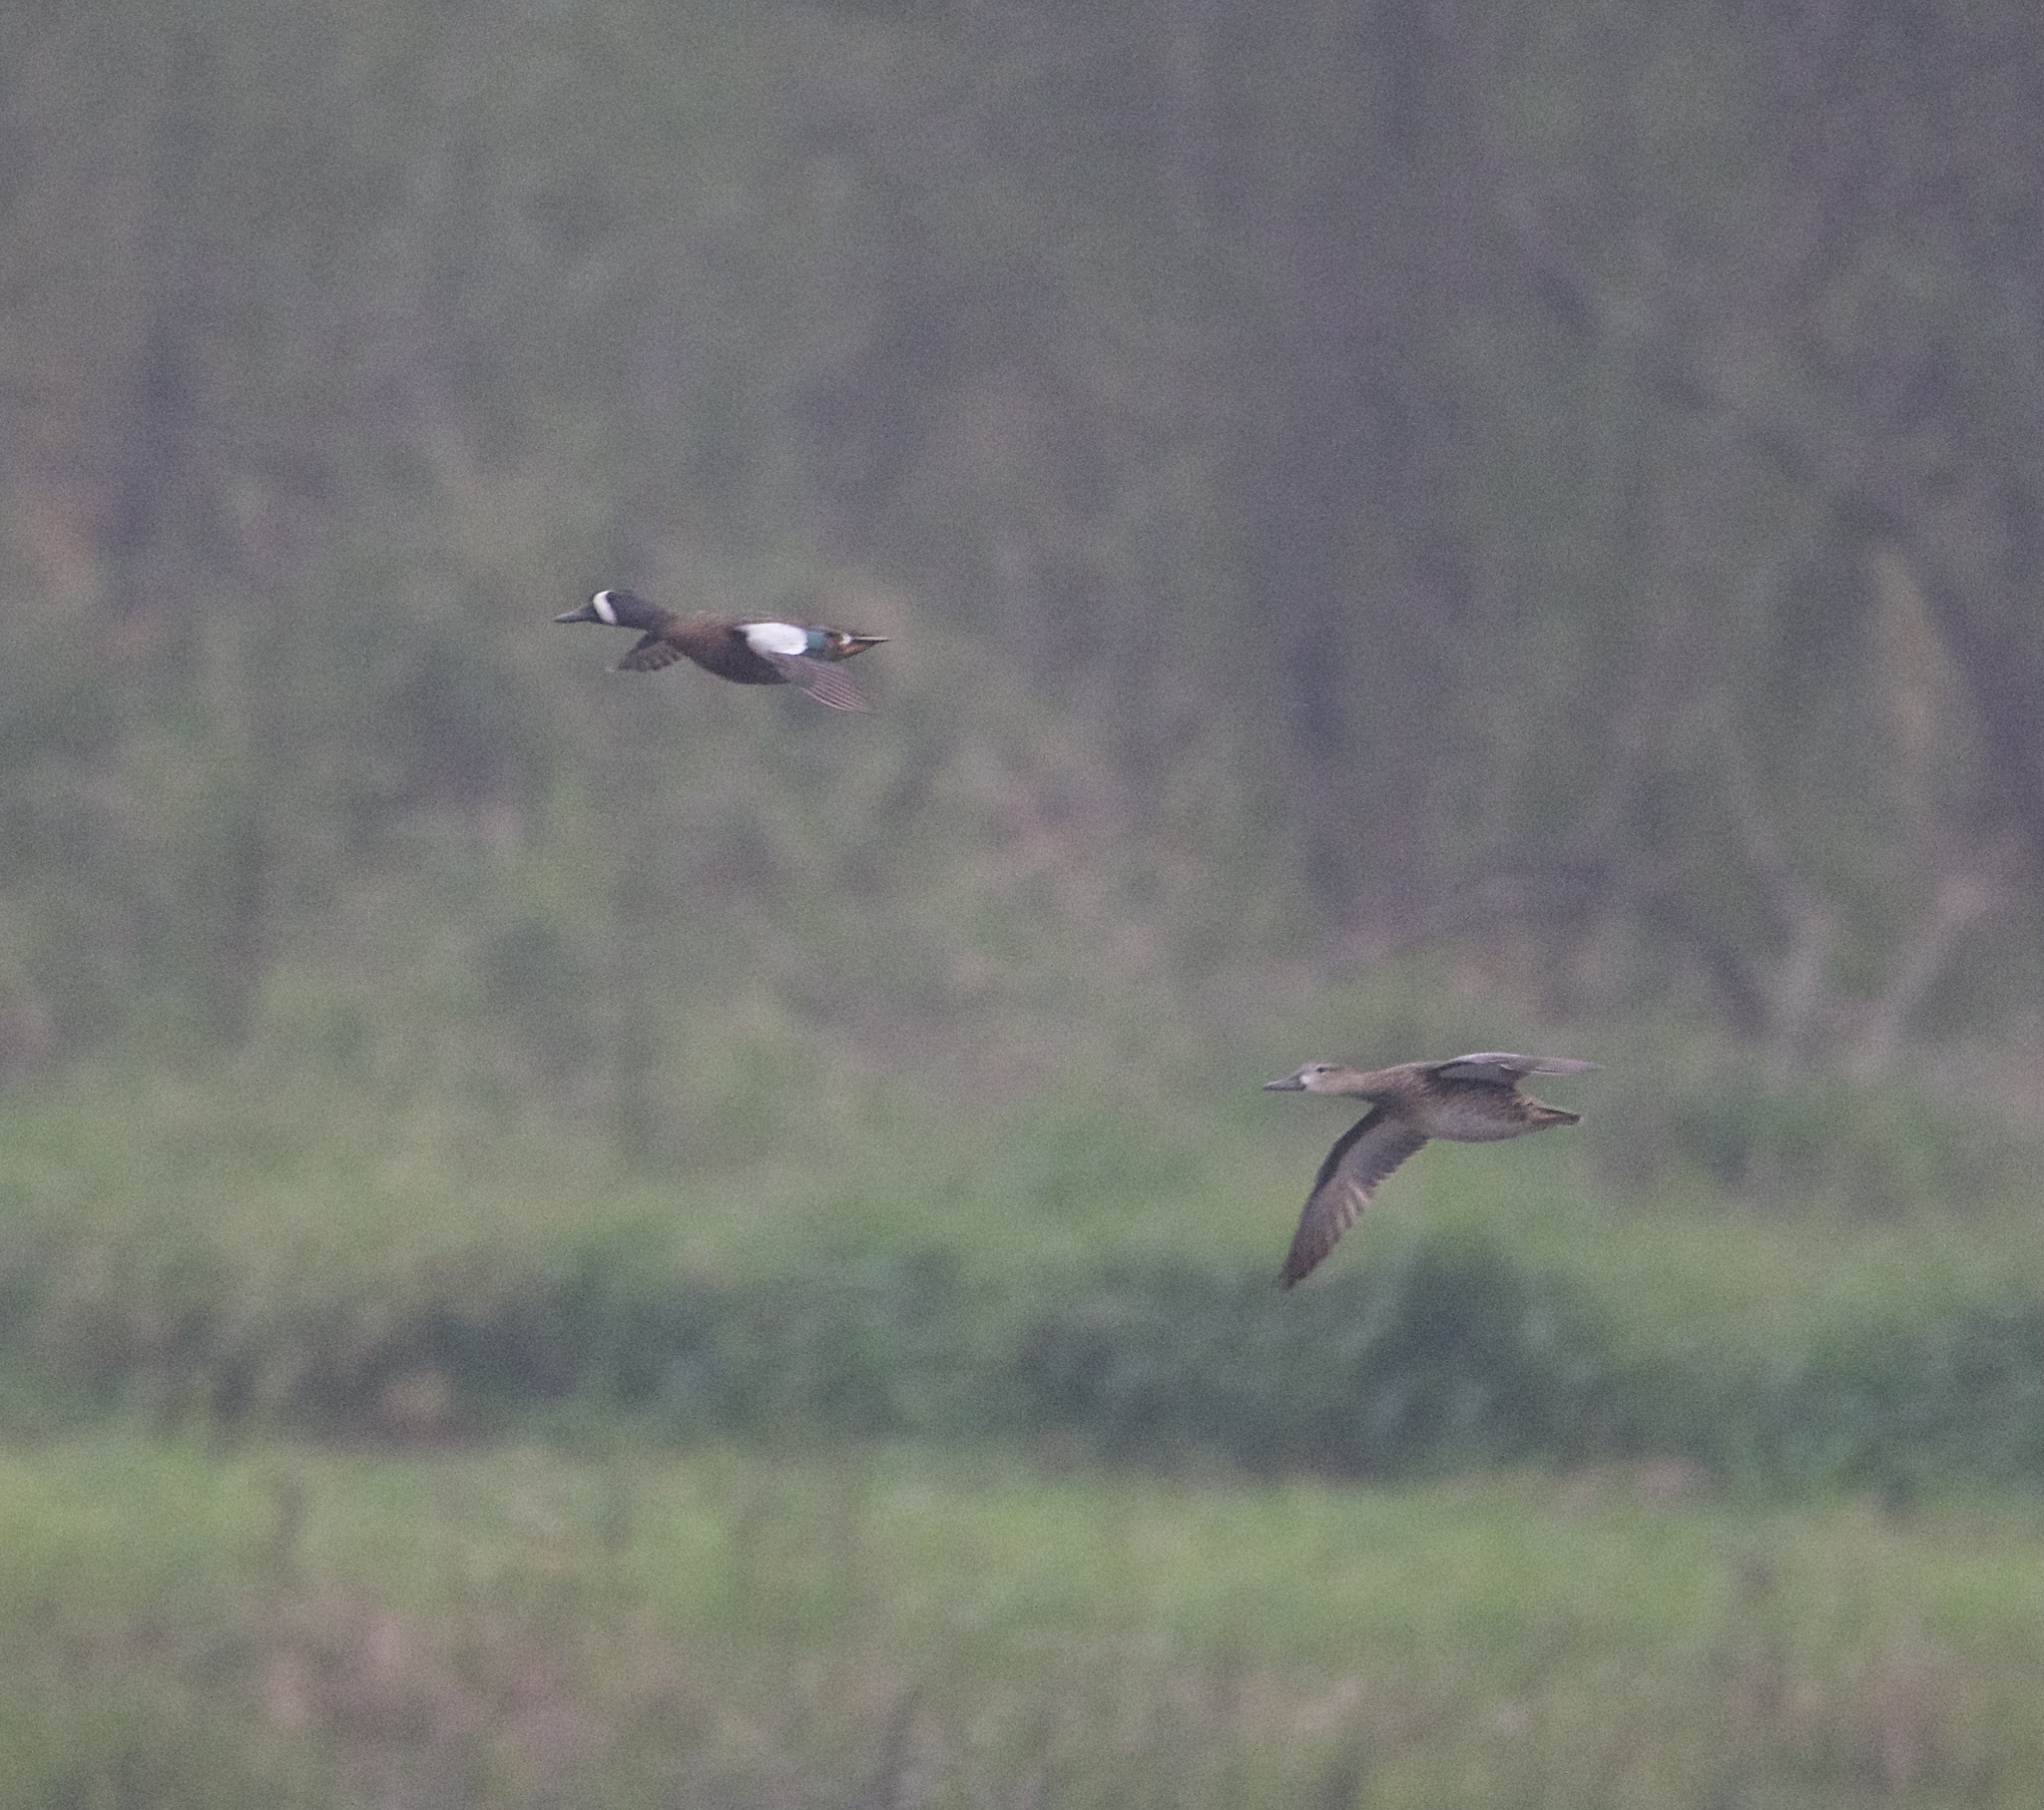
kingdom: Animalia
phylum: Chordata
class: Aves
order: Anseriformes
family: Anatidae
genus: Spatula
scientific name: Spatula discors
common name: Blue-winged teal
